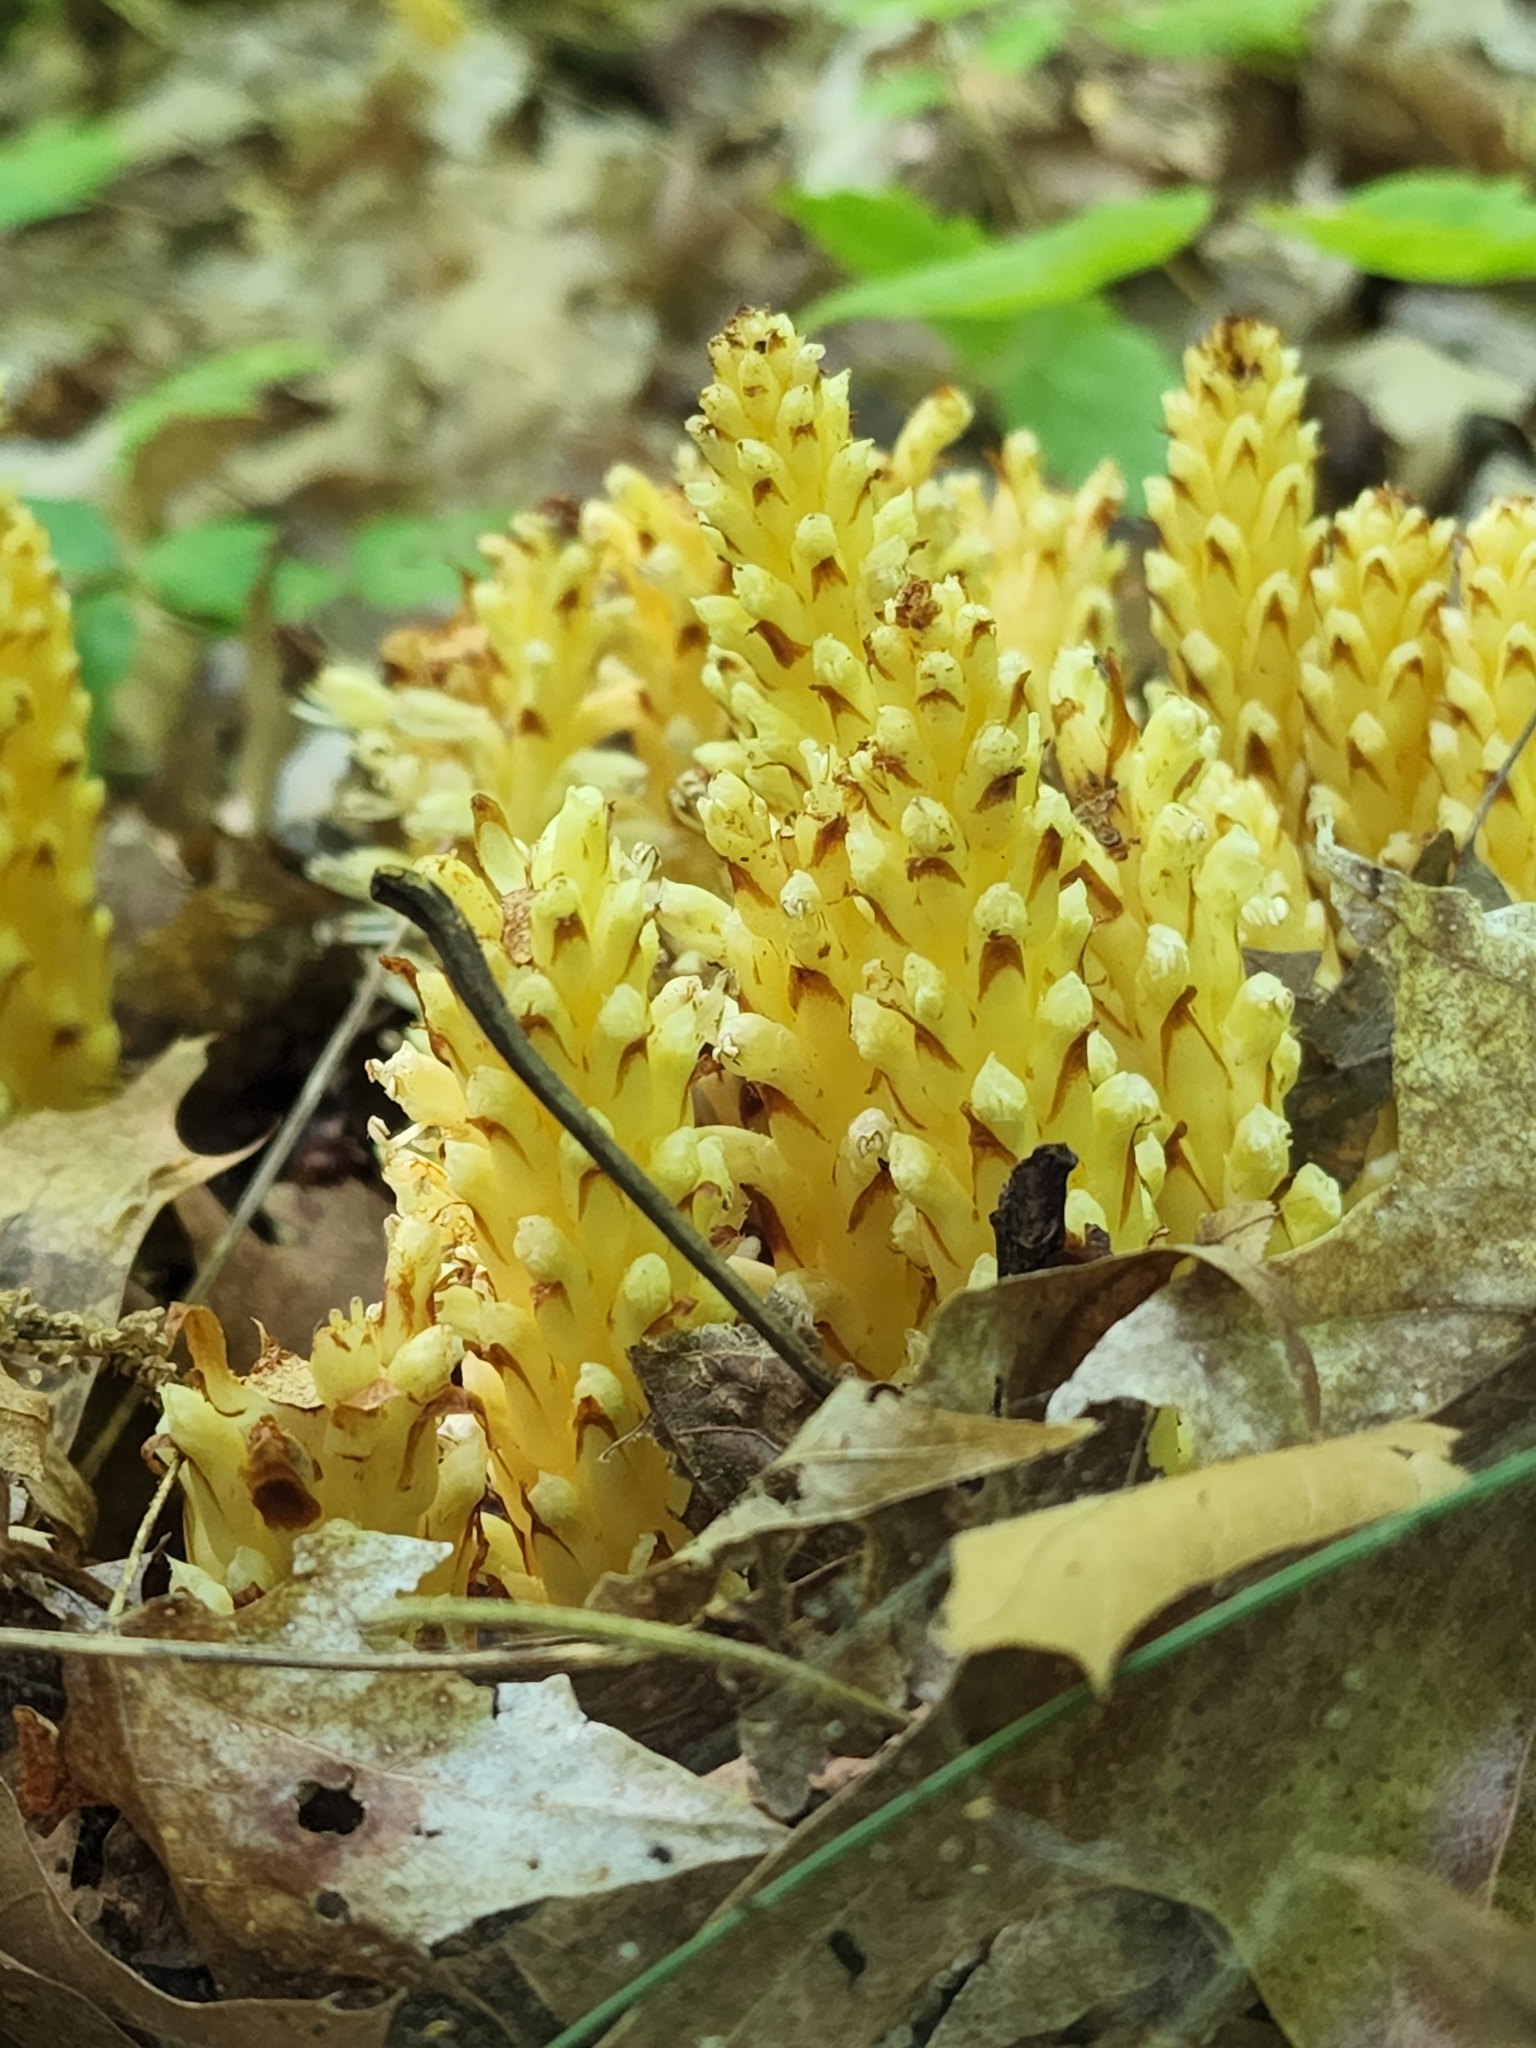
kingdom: Plantae
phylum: Tracheophyta
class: Magnoliopsida
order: Lamiales
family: Orobanchaceae
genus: Conopholis
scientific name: Conopholis americana
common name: American cancer-root
